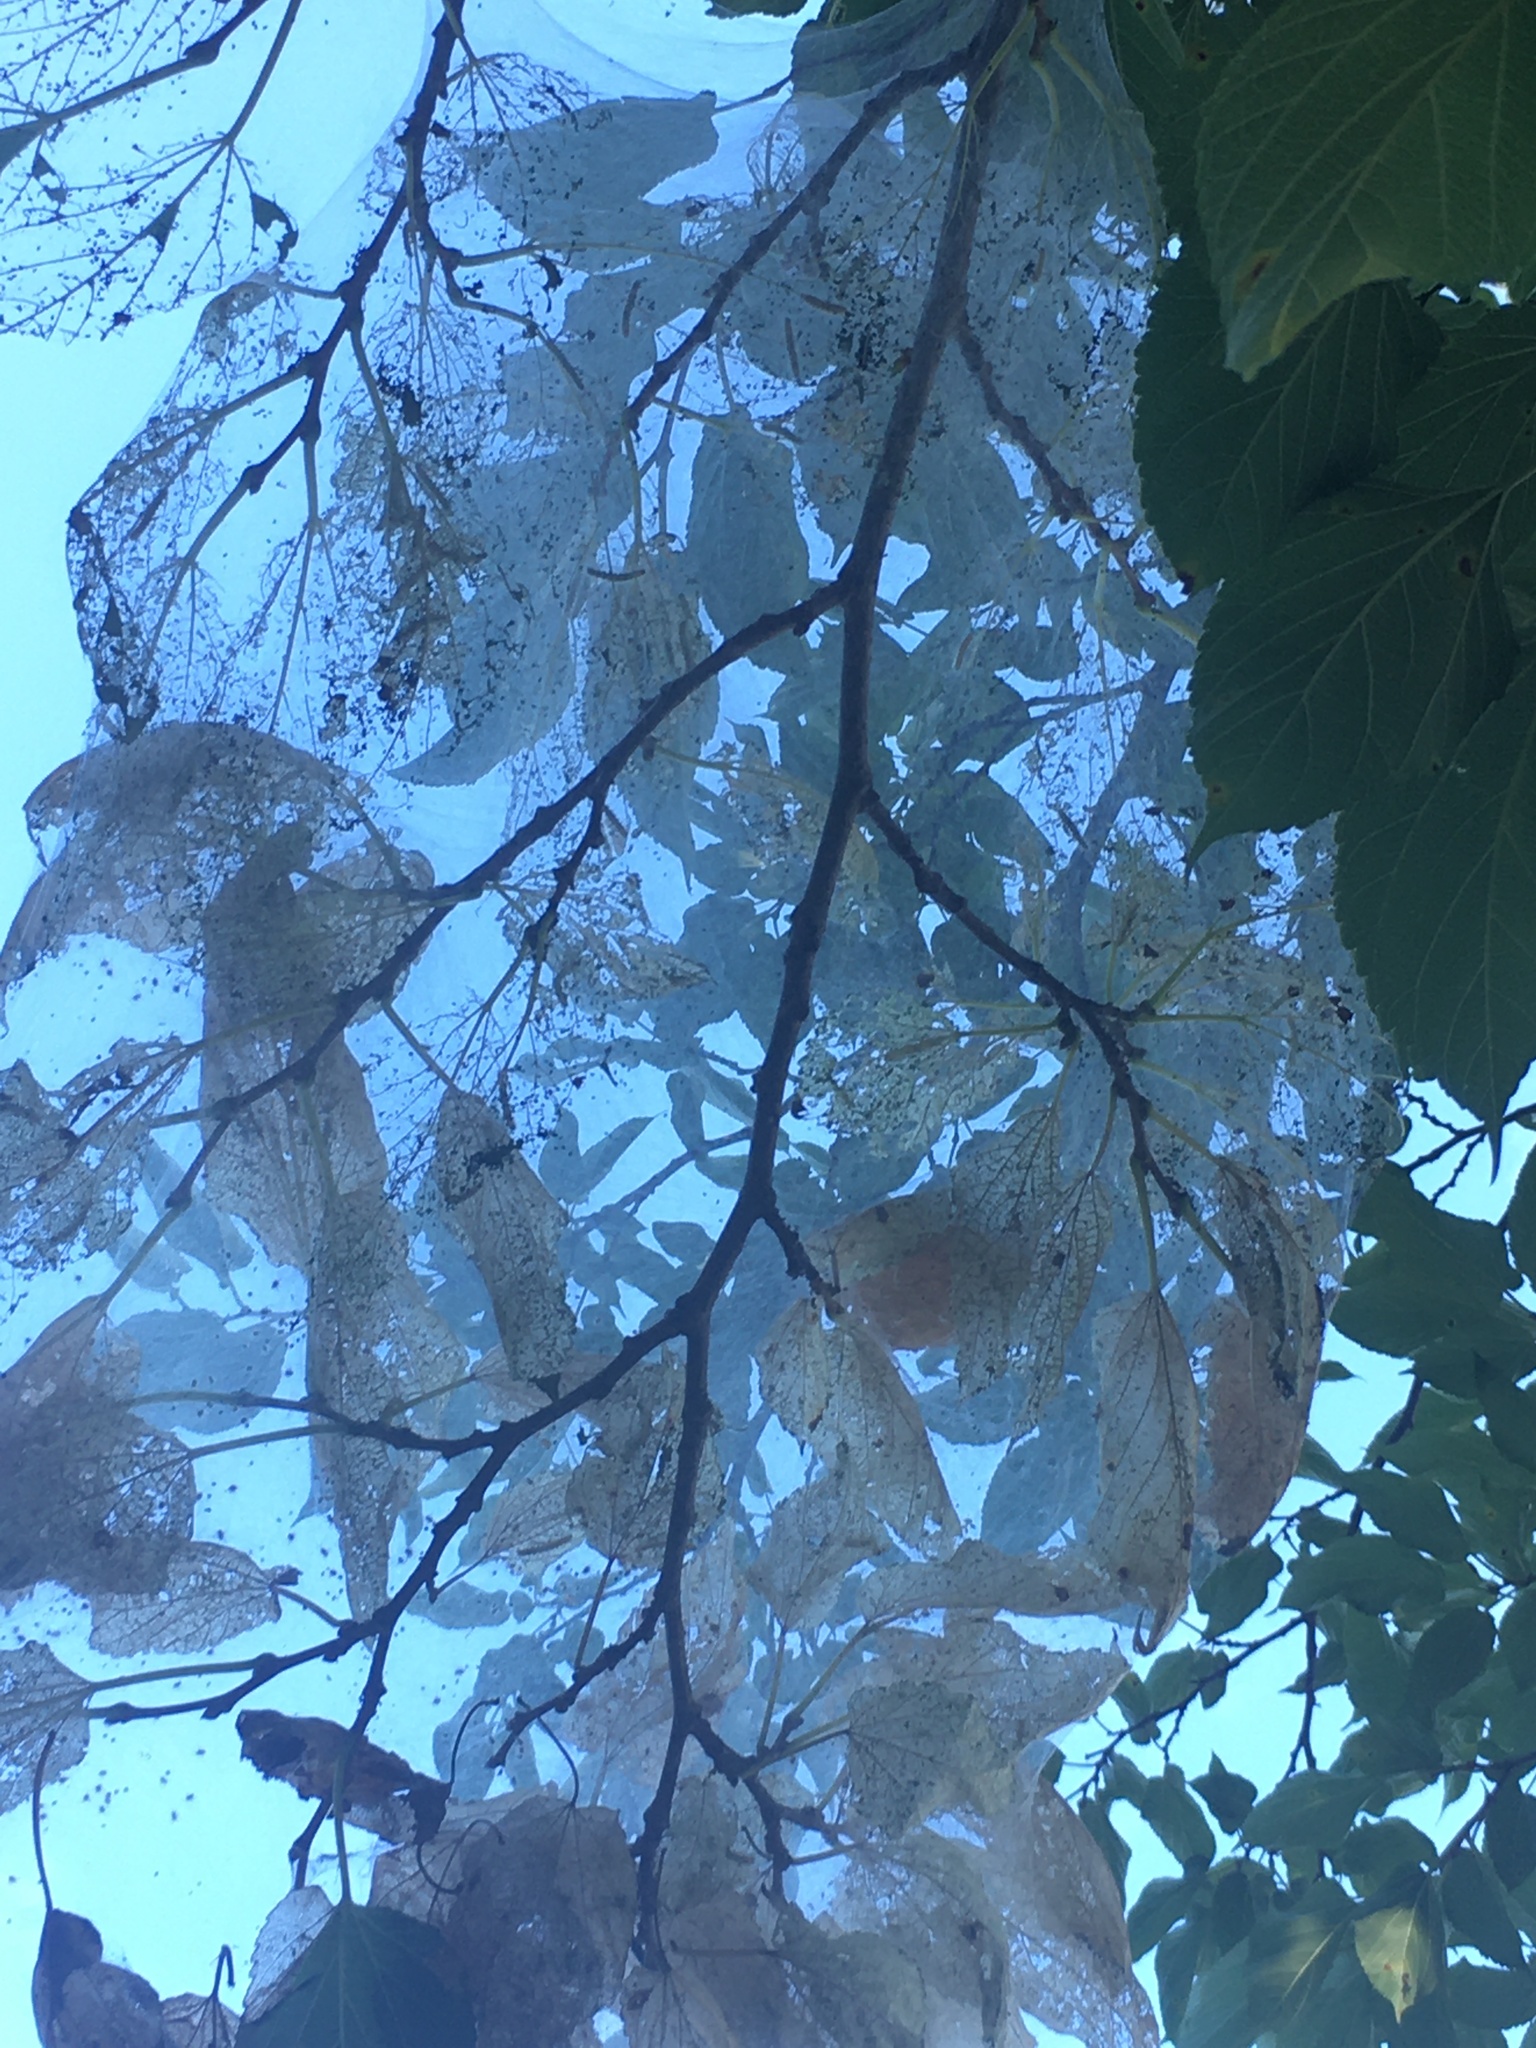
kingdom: Animalia
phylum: Arthropoda
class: Insecta
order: Lepidoptera
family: Erebidae
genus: Hyphantria
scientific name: Hyphantria cunea
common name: American white moth
